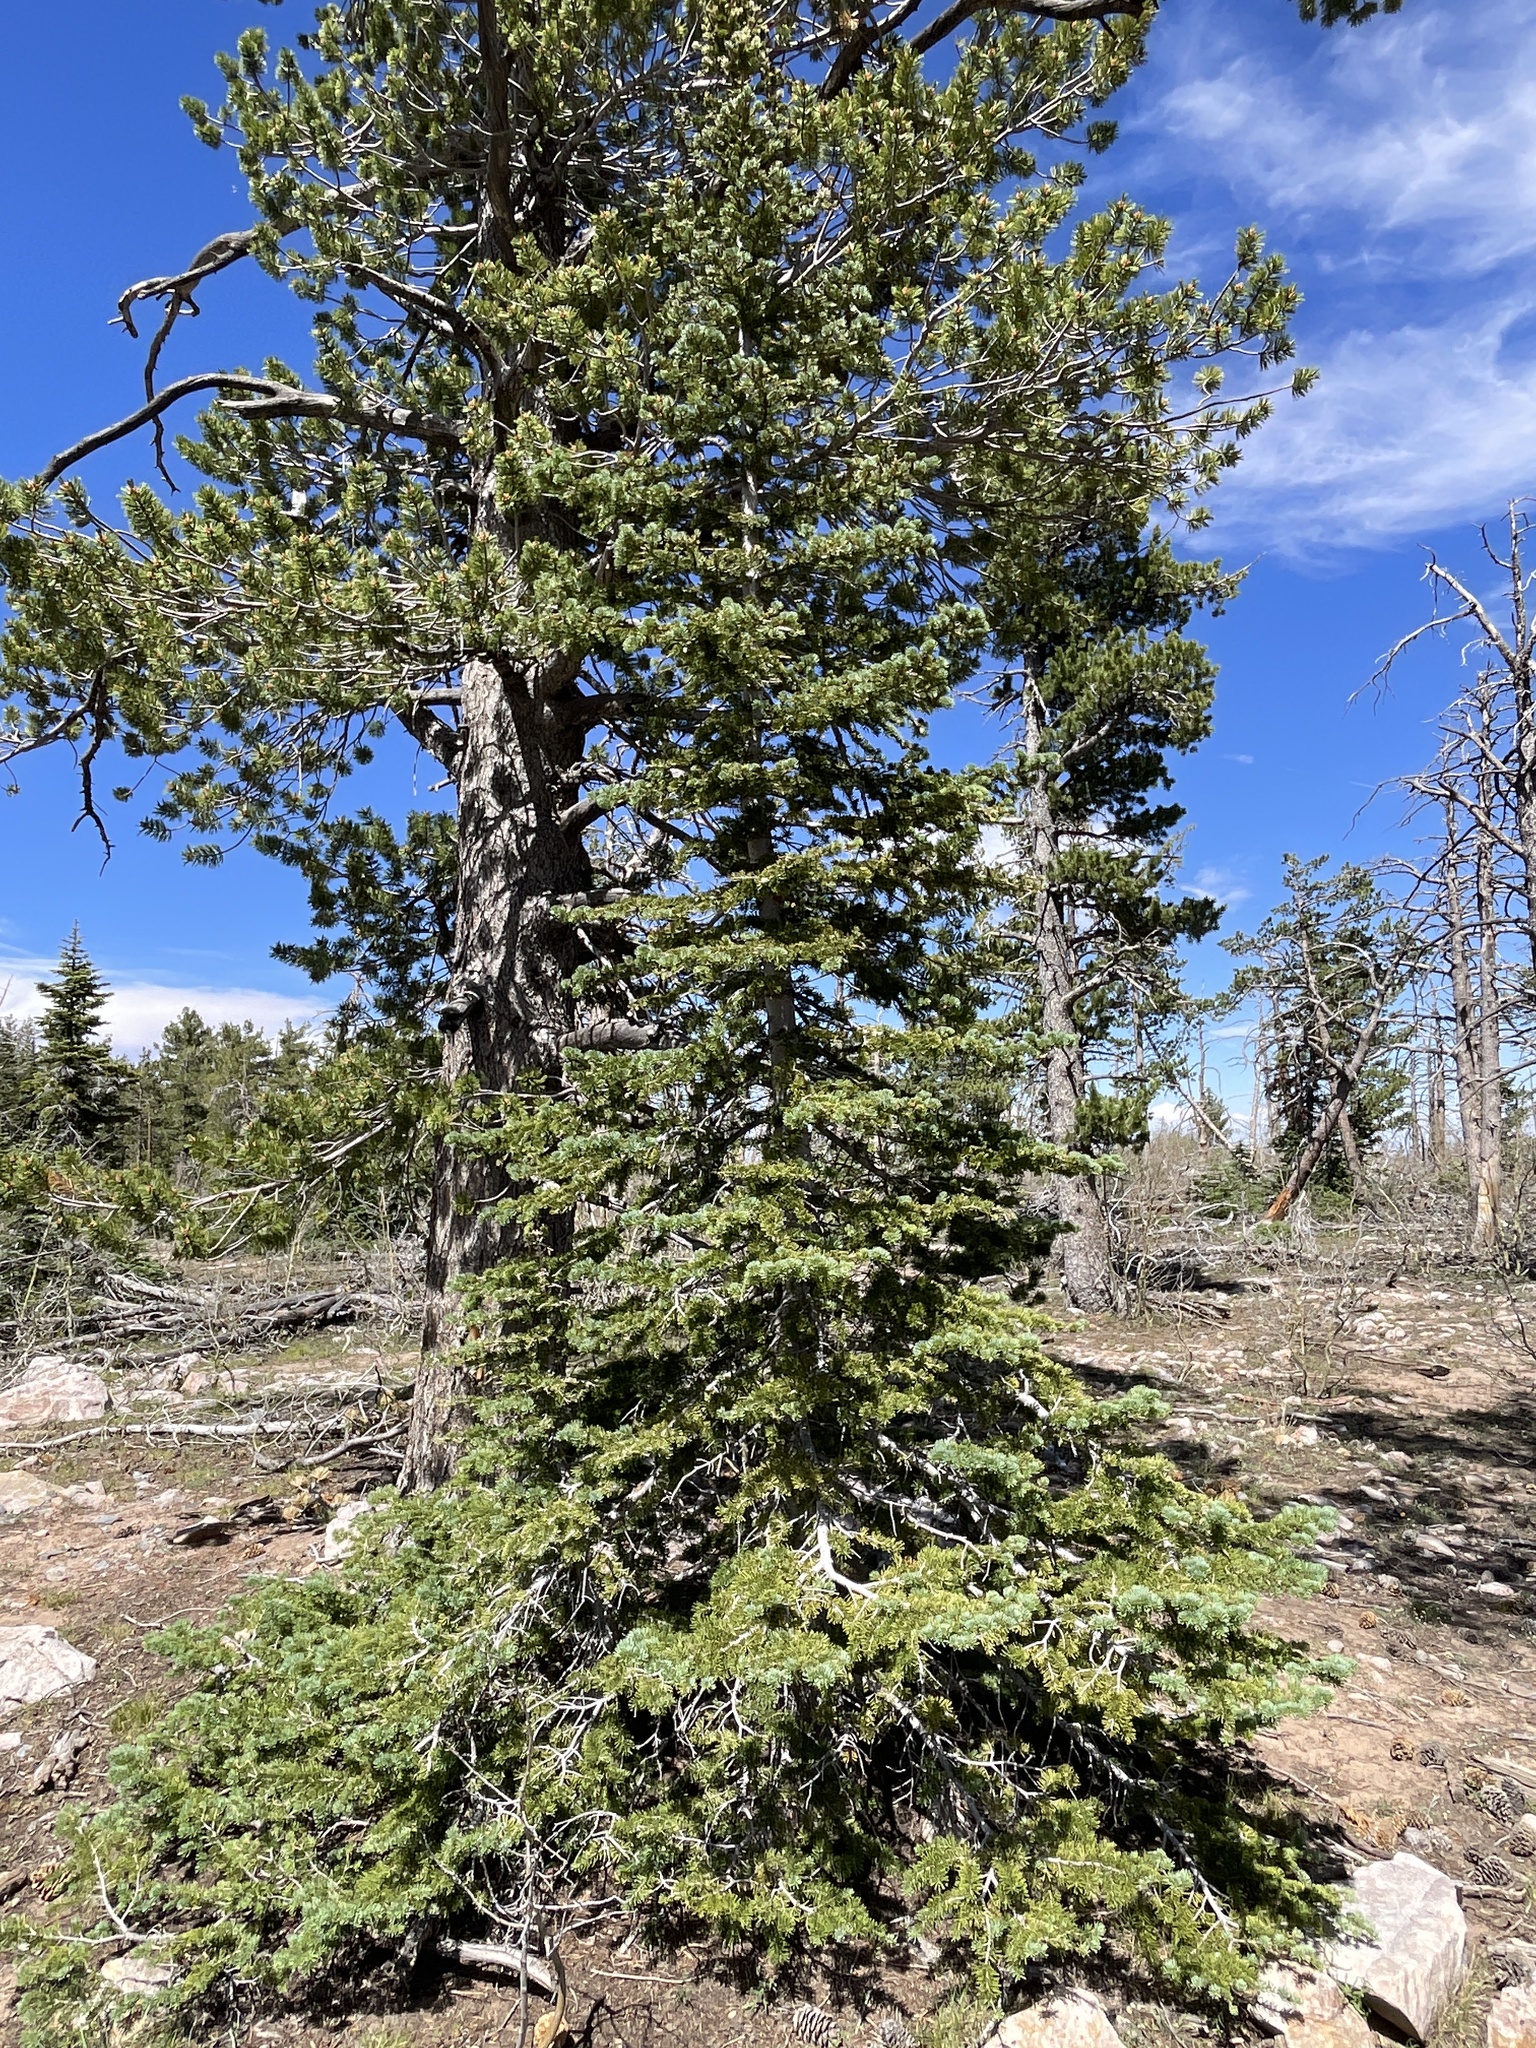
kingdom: Plantae
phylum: Tracheophyta
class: Pinopsida
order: Pinales
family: Pinaceae
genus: Abies
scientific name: Abies lasiocarpa
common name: Subalpine fir
